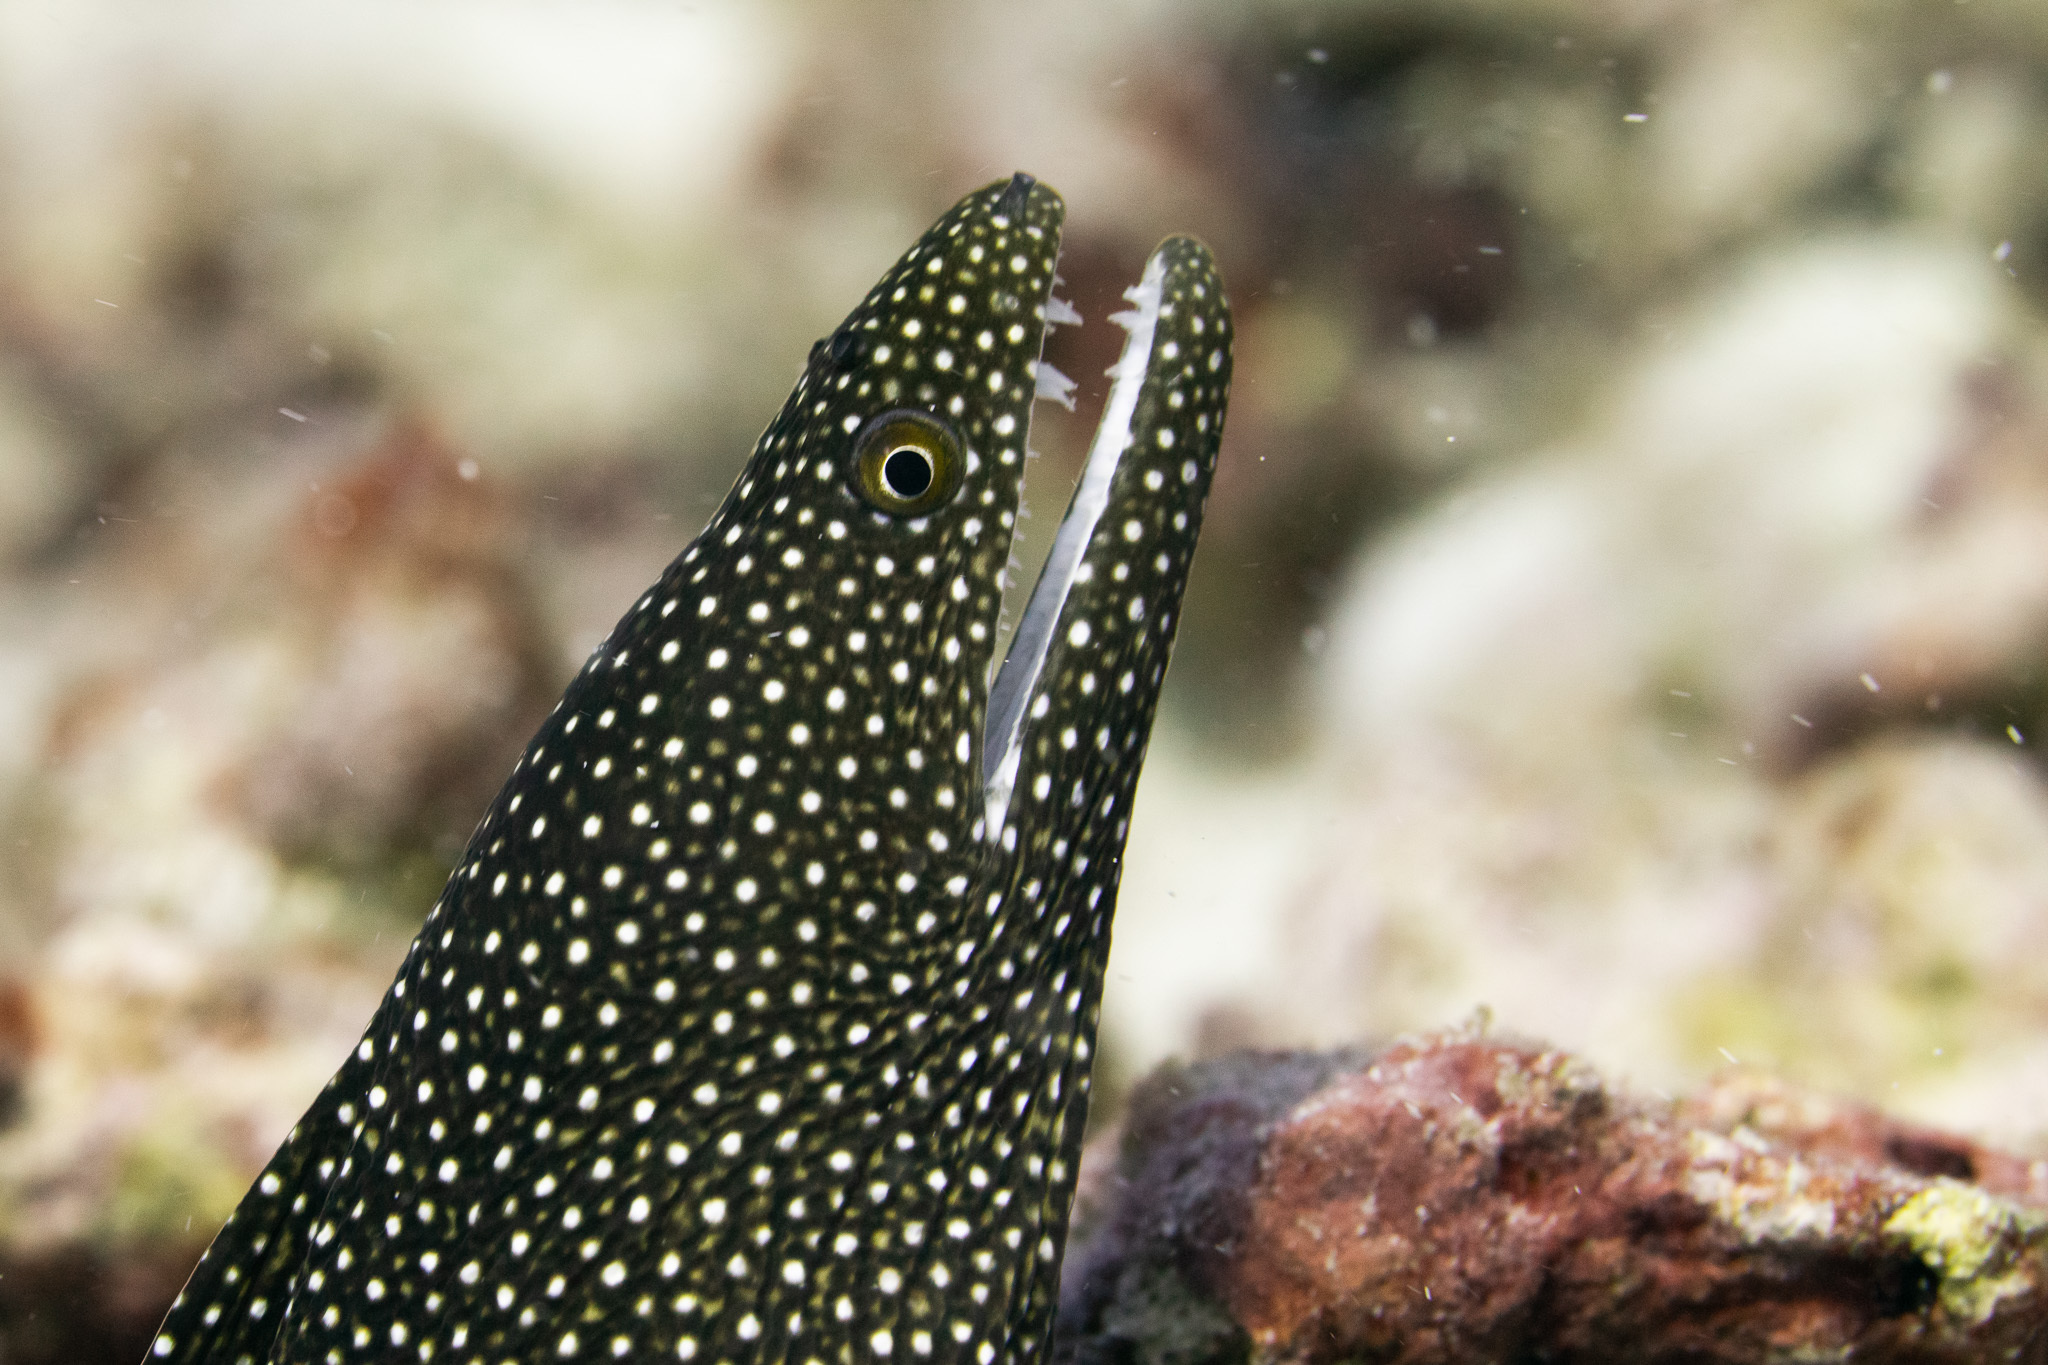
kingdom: Animalia
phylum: Chordata
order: Anguilliformes
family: Muraenidae
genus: Gymnothorax
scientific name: Gymnothorax meleagris
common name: Guineafowl moray
